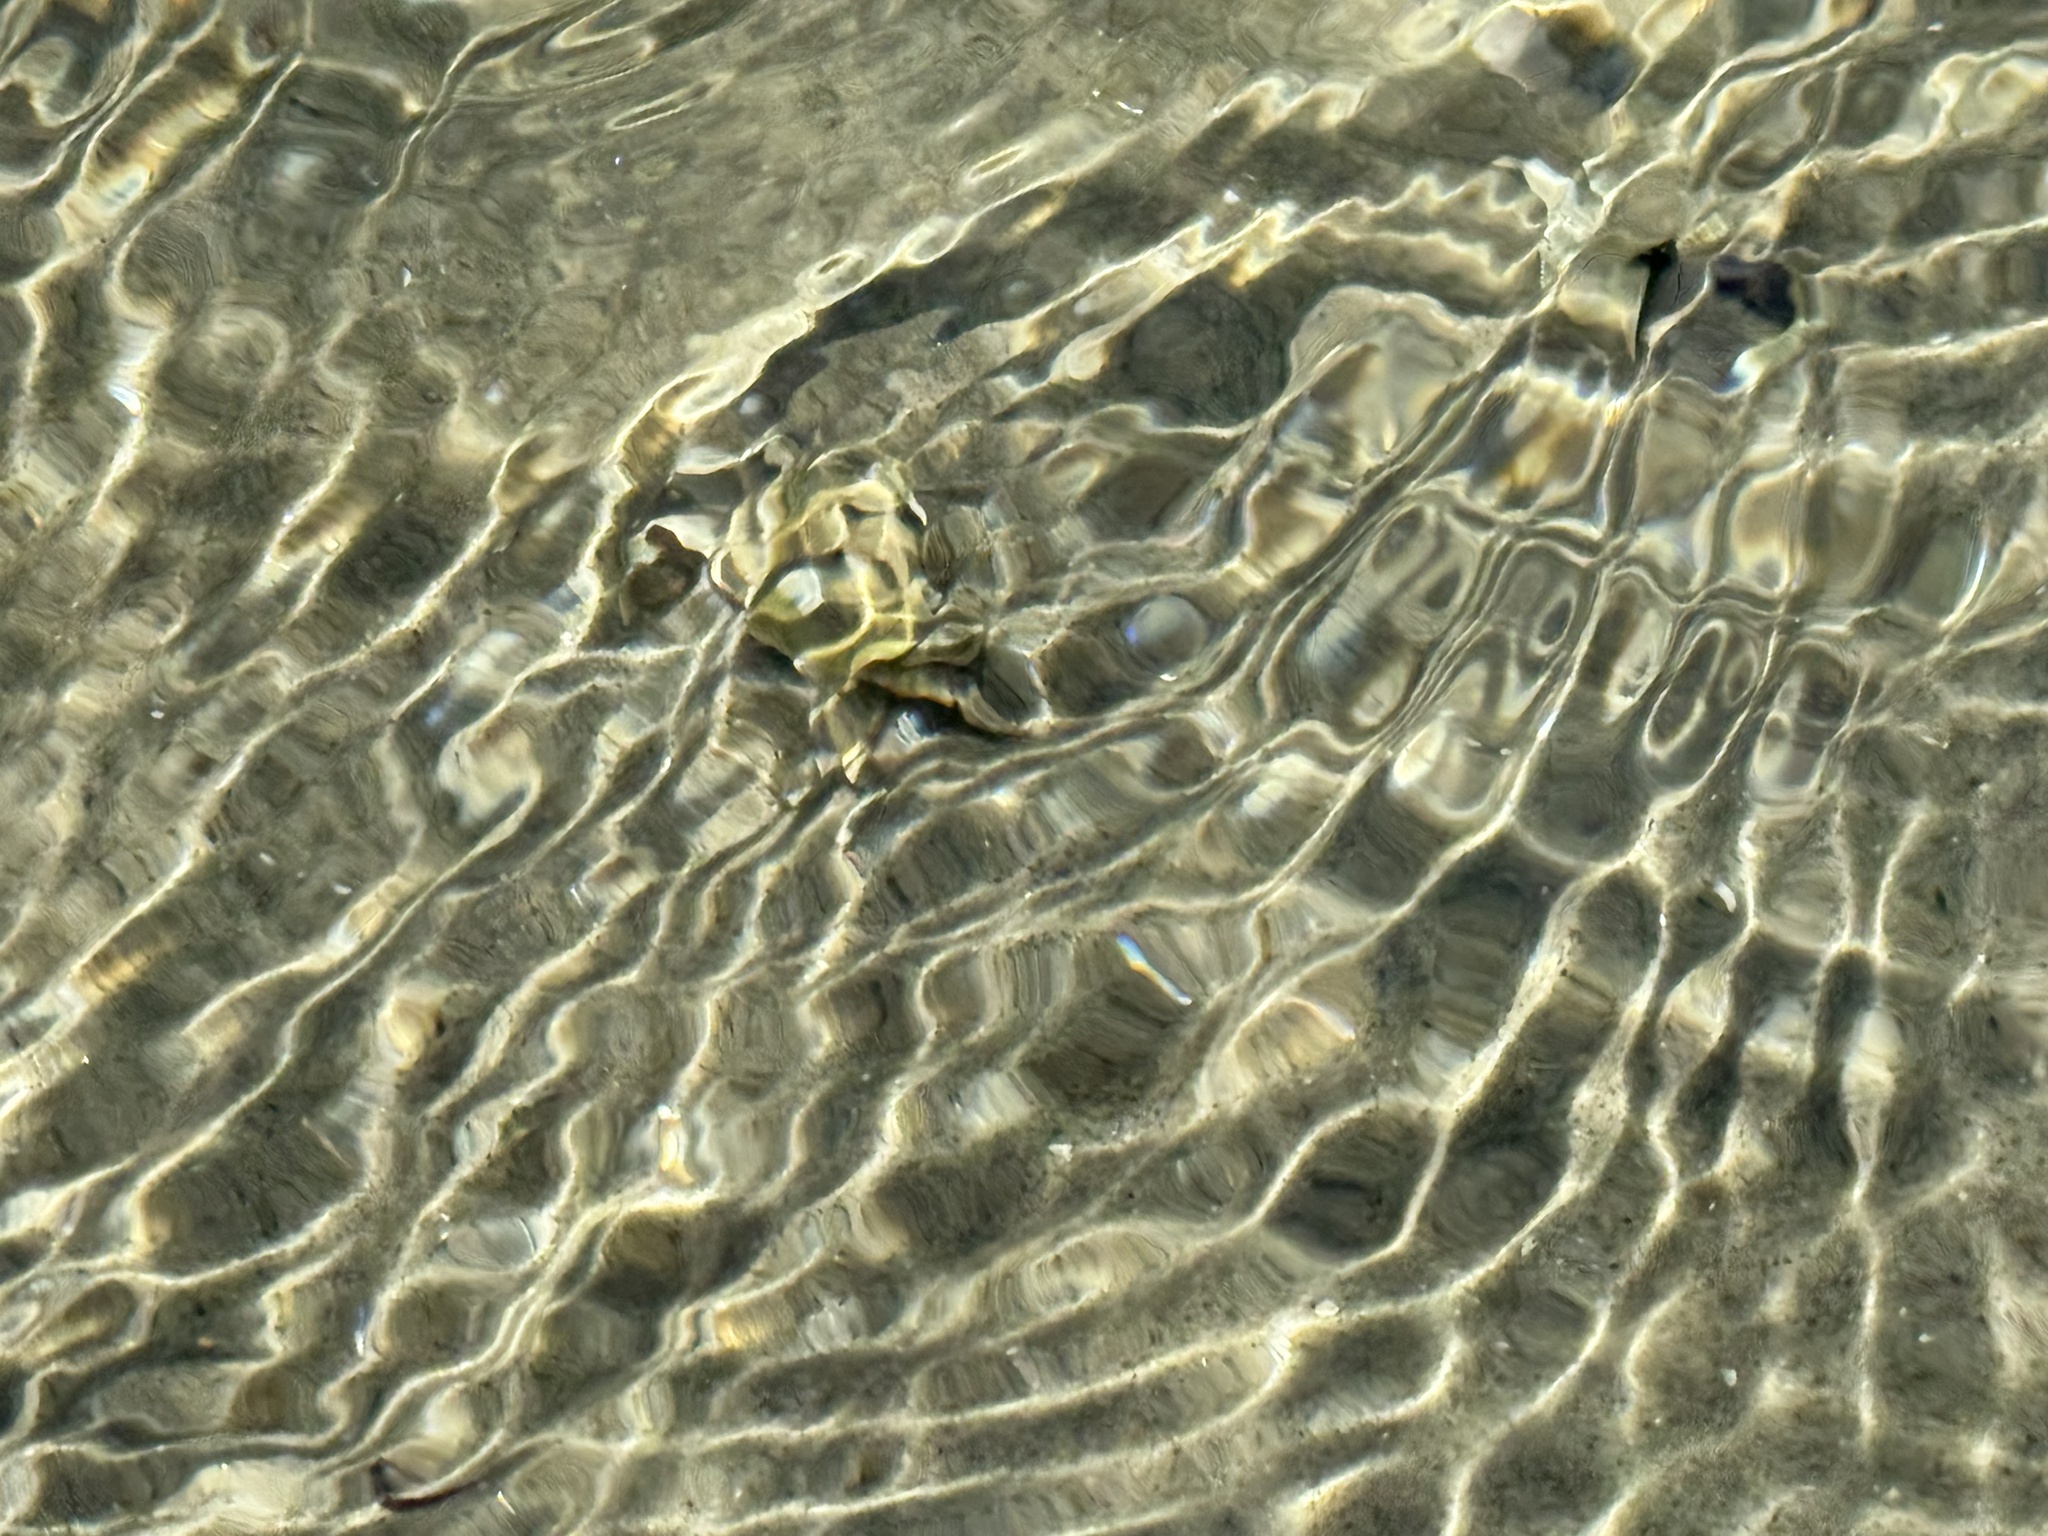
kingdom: Animalia
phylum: Arthropoda
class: Malacostraca
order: Decapoda
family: Varunidae
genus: Hemigrapsus
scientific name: Hemigrapsus crenulatus
